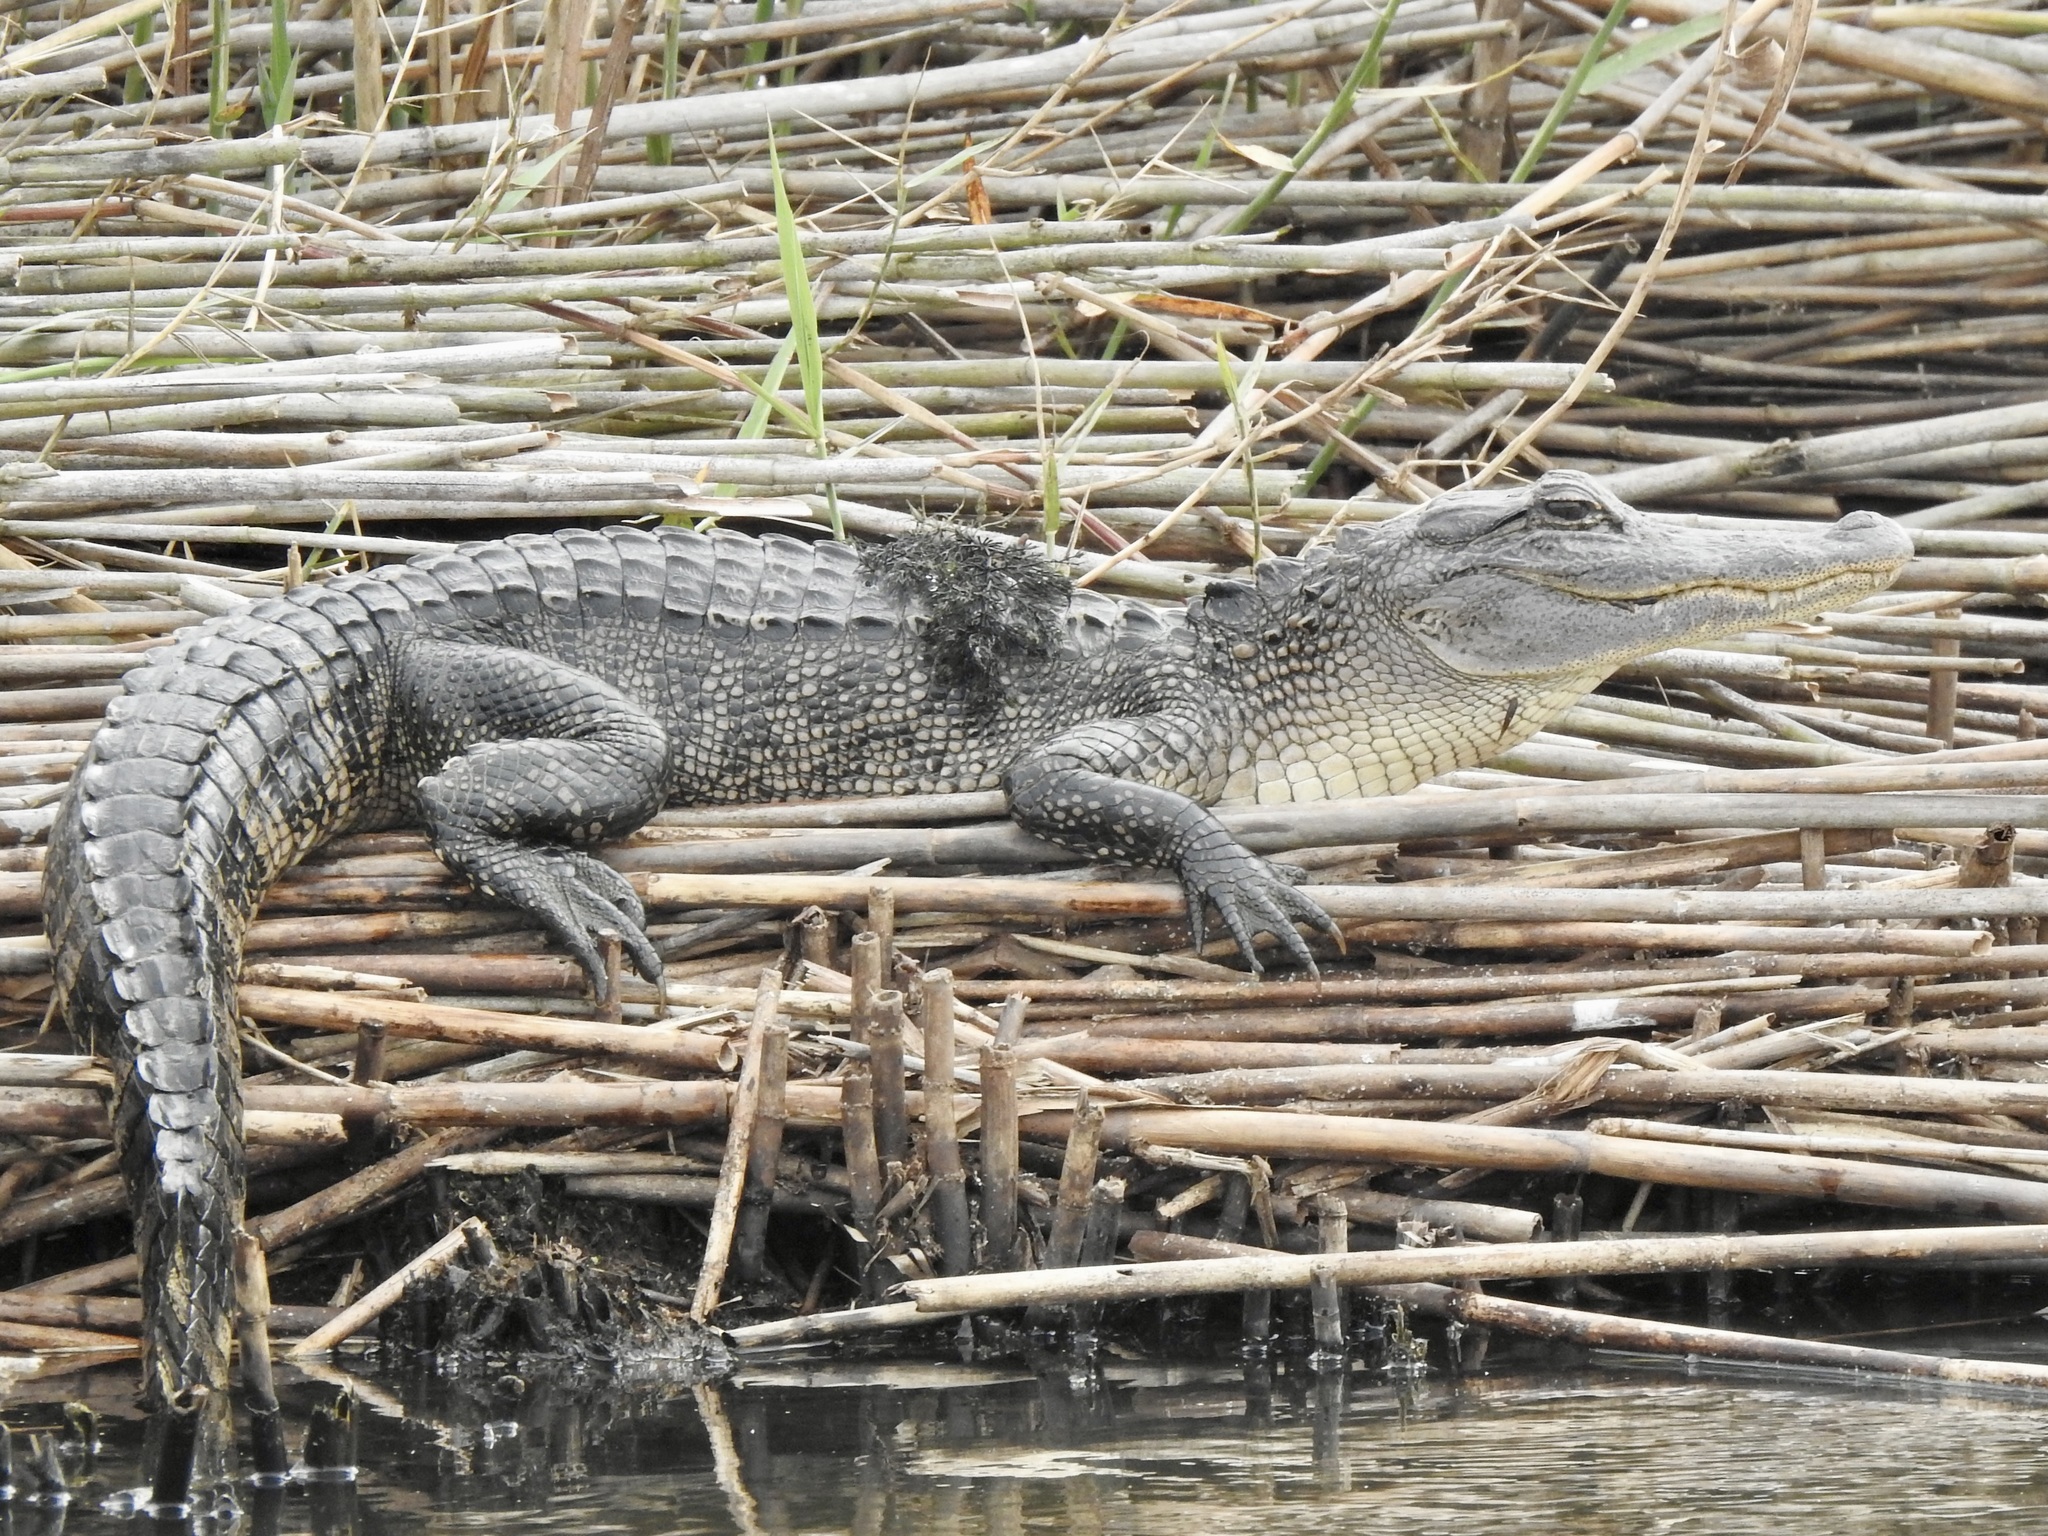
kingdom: Animalia
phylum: Chordata
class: Crocodylia
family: Alligatoridae
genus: Alligator
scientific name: Alligator mississippiensis
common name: American alligator
